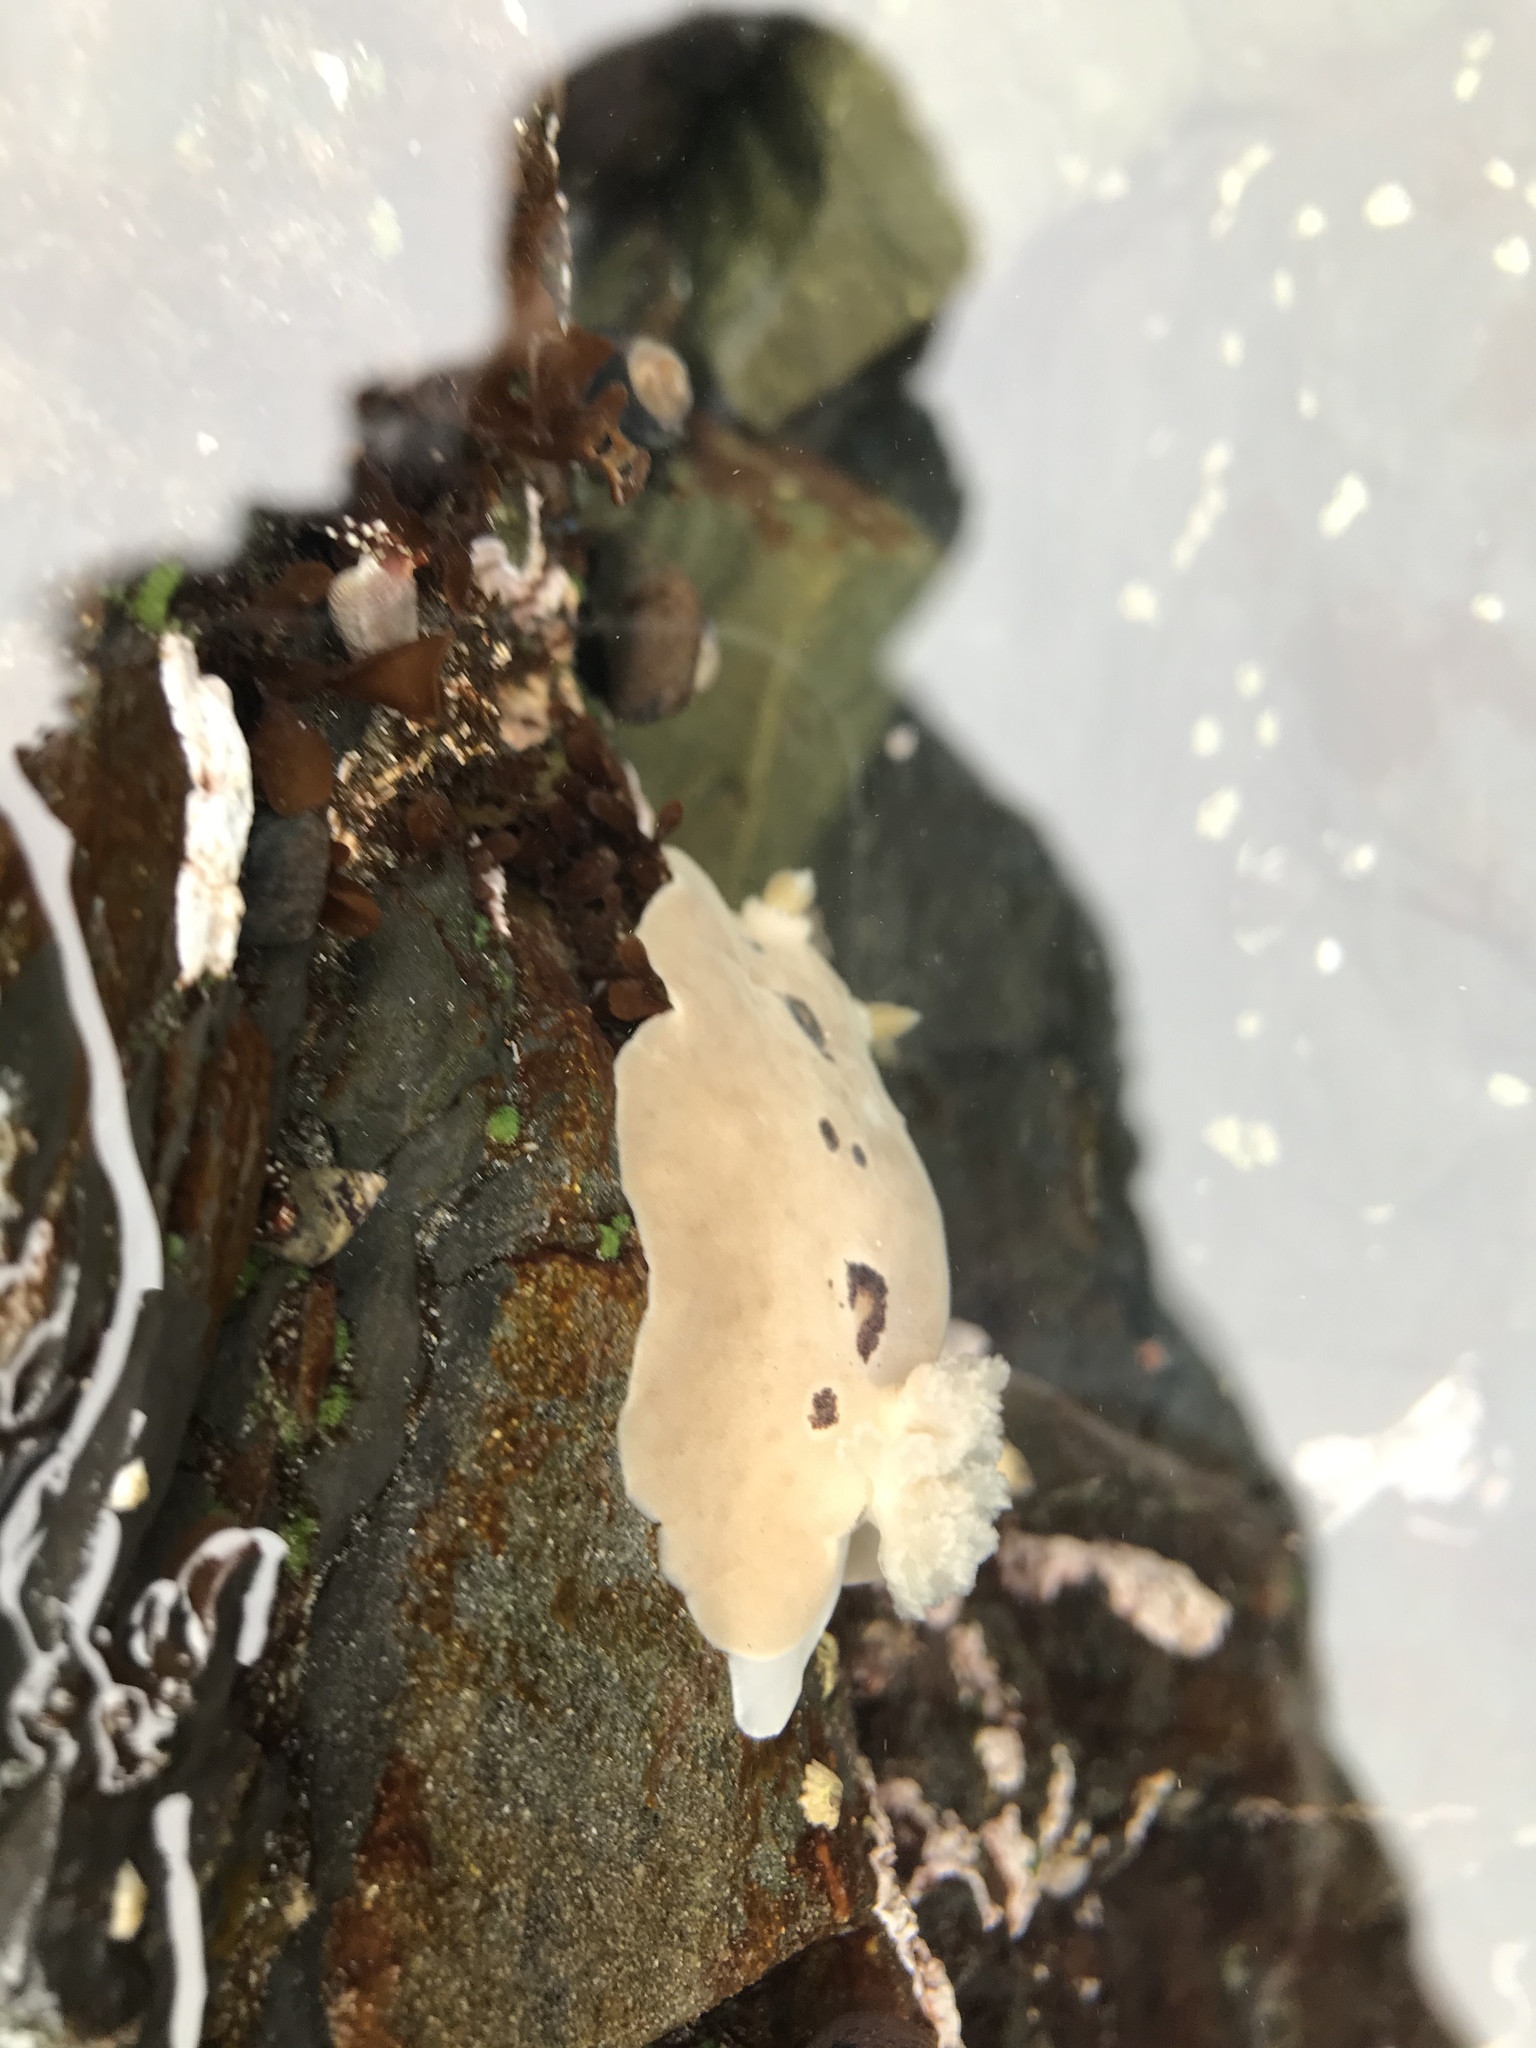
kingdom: Animalia
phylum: Mollusca
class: Gastropoda
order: Nudibranchia
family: Discodorididae
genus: Diaulula
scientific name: Diaulula sandiegensis
